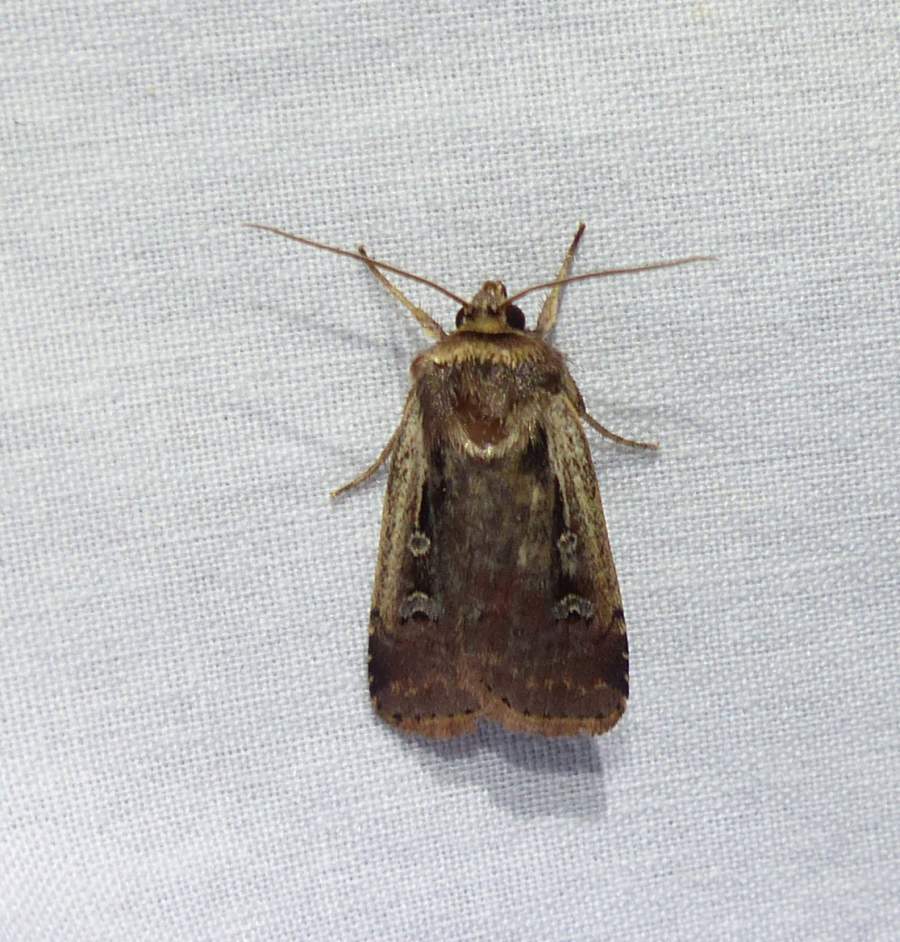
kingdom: Animalia
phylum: Arthropoda
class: Insecta
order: Lepidoptera
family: Noctuidae
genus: Ochropleura
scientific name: Ochropleura implecta
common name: Flame-shouldered dart
